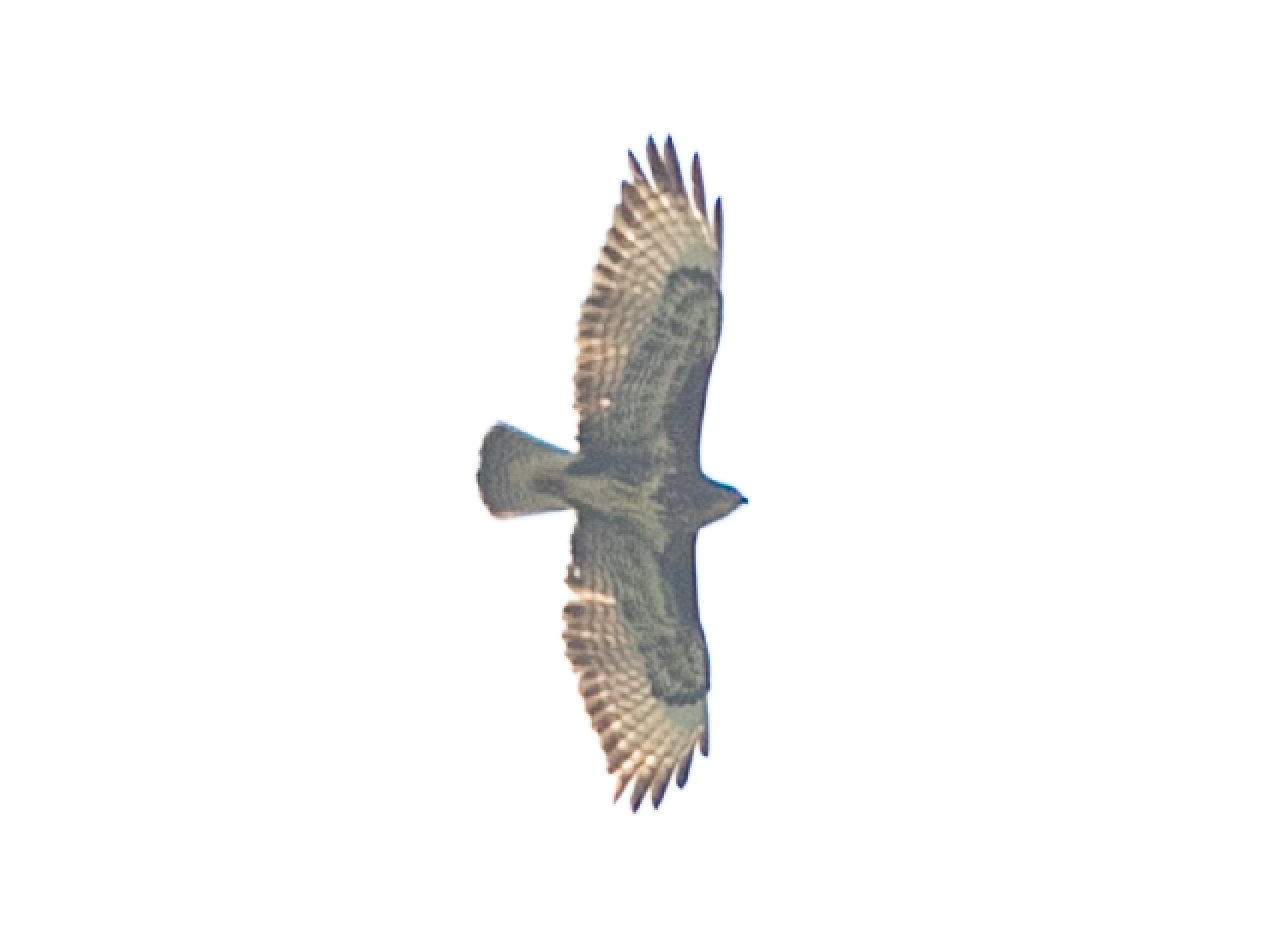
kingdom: Animalia
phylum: Chordata
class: Aves
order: Accipitriformes
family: Accipitridae
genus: Buteo
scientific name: Buteo buteo
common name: Common buzzard
